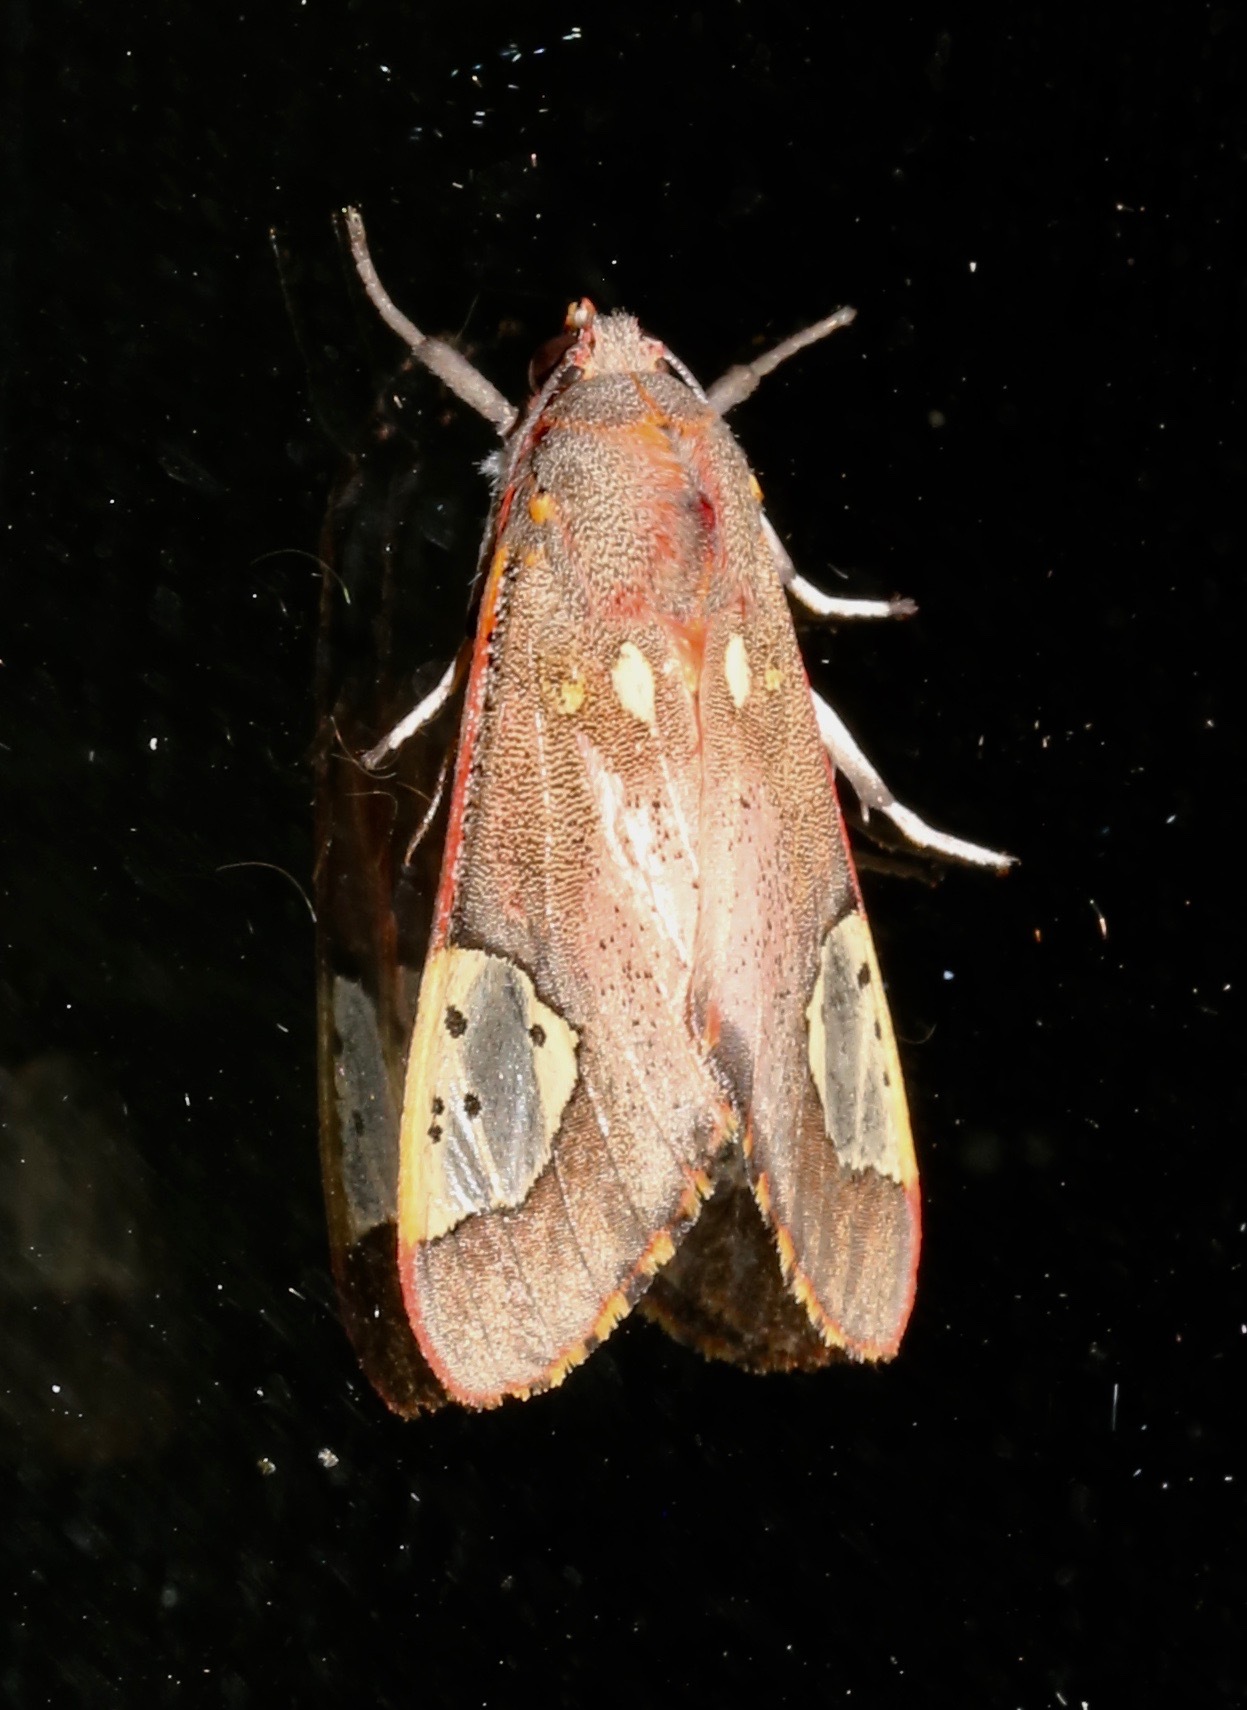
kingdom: Animalia
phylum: Arthropoda
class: Insecta
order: Lepidoptera
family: Erebidae
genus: Bertholdia
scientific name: Bertholdia trigona
